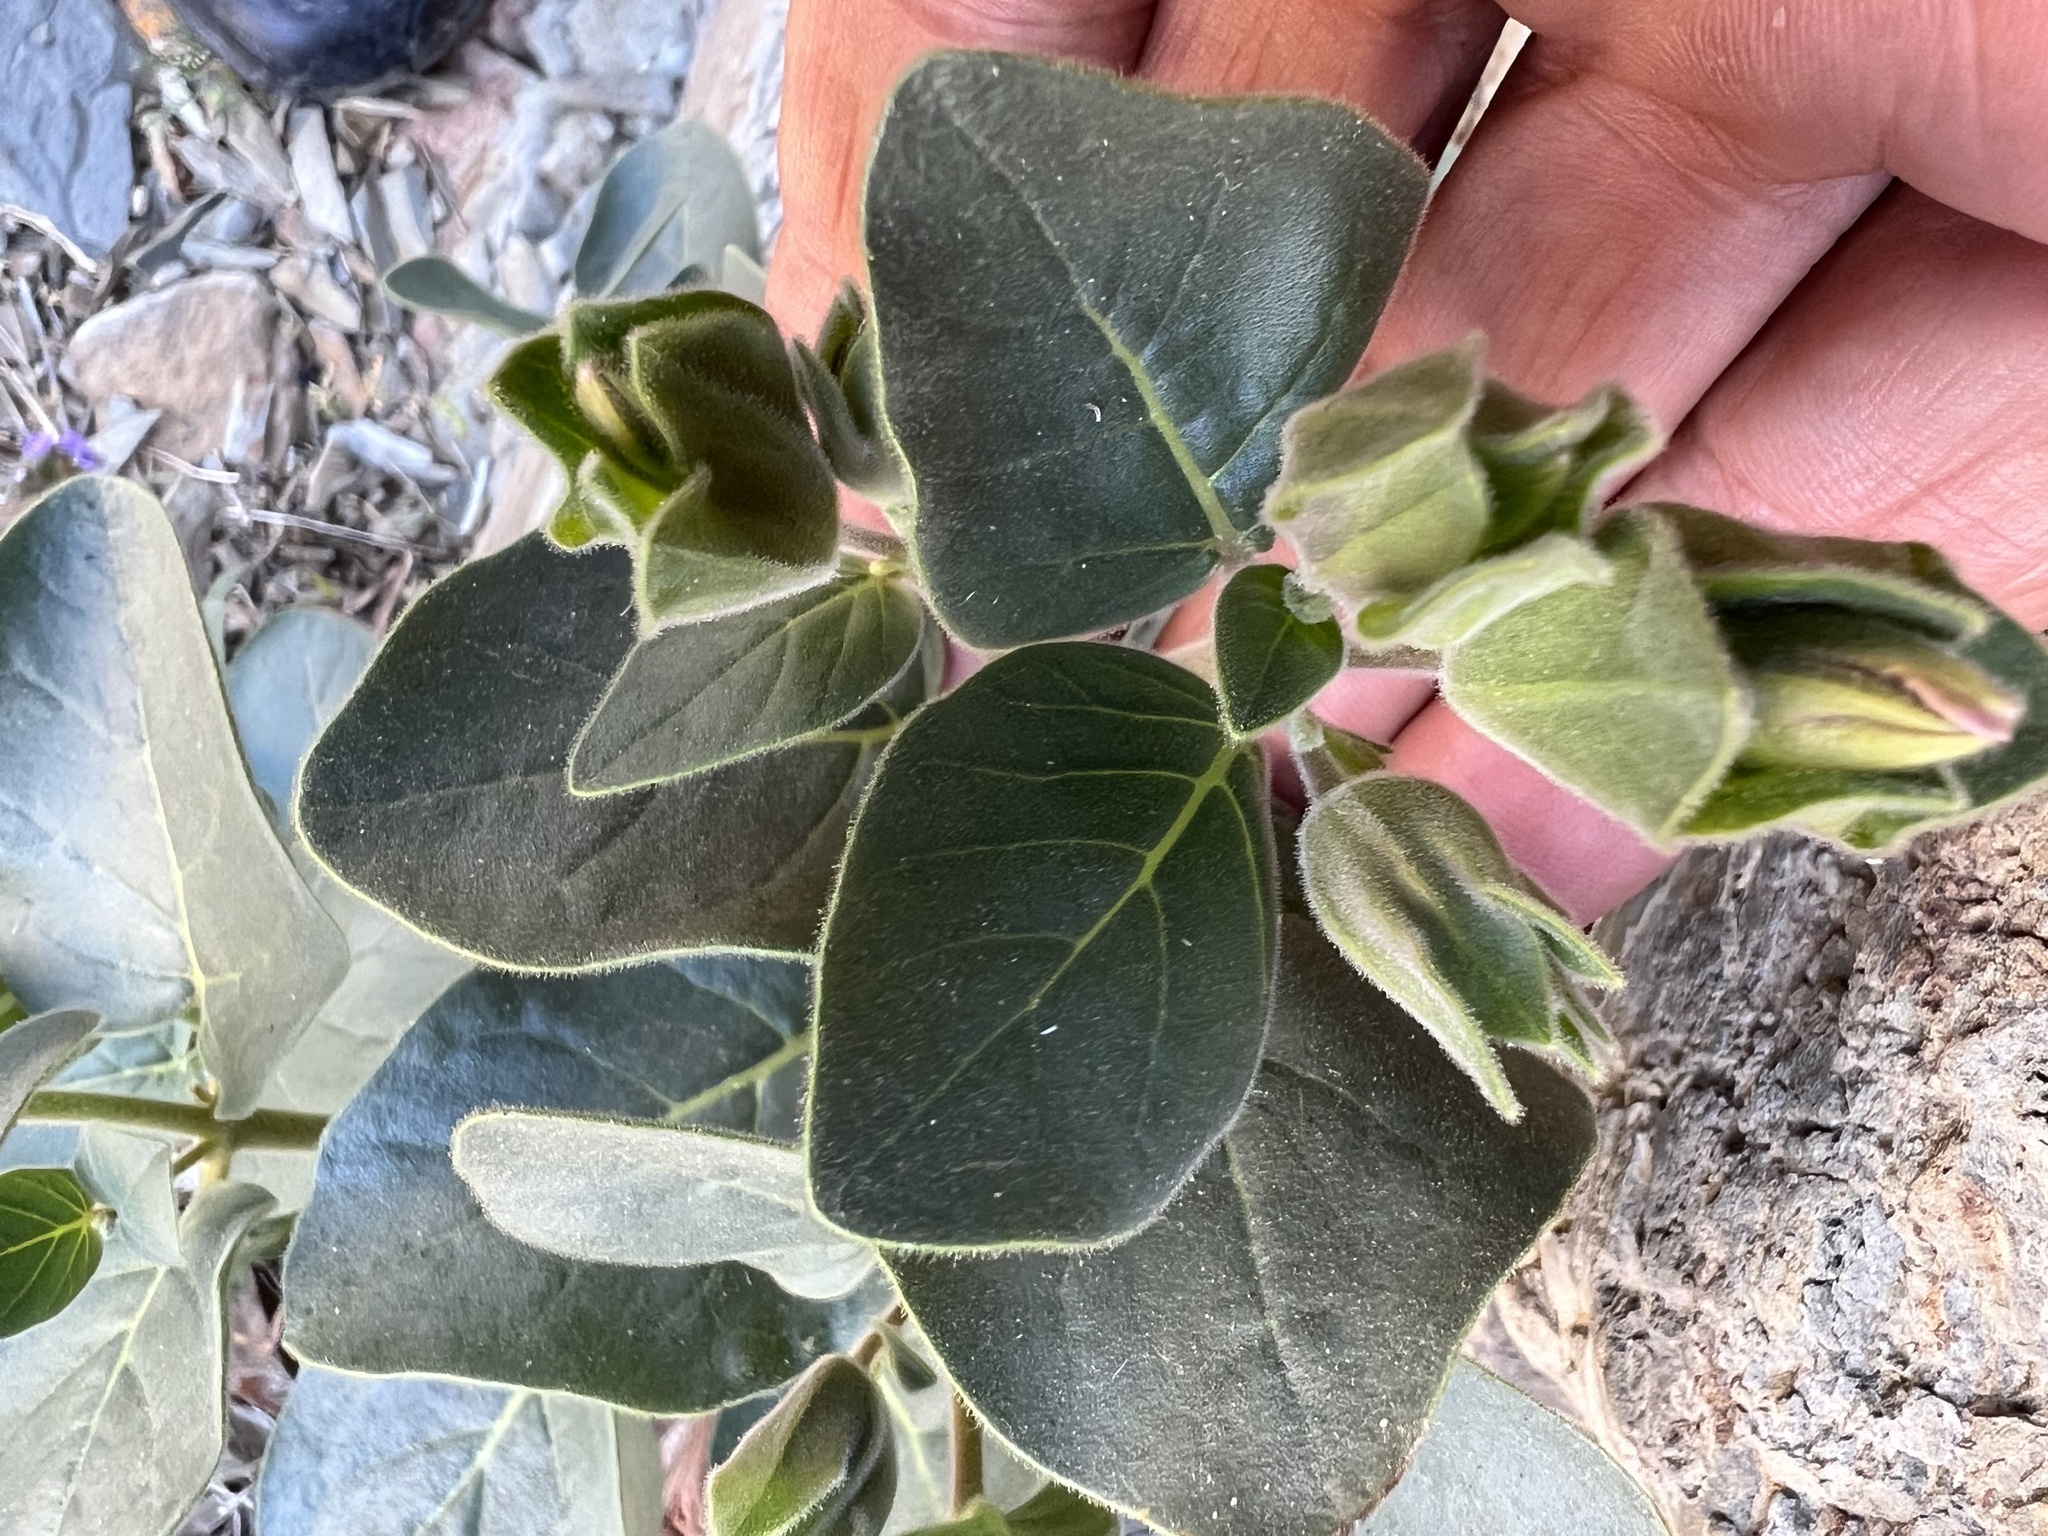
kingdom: Plantae
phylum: Tracheophyta
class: Magnoliopsida
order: Caryophyllales
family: Nyctaginaceae
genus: Mirabilis
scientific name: Mirabilis multiflora
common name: Froebel's four-o'clock
